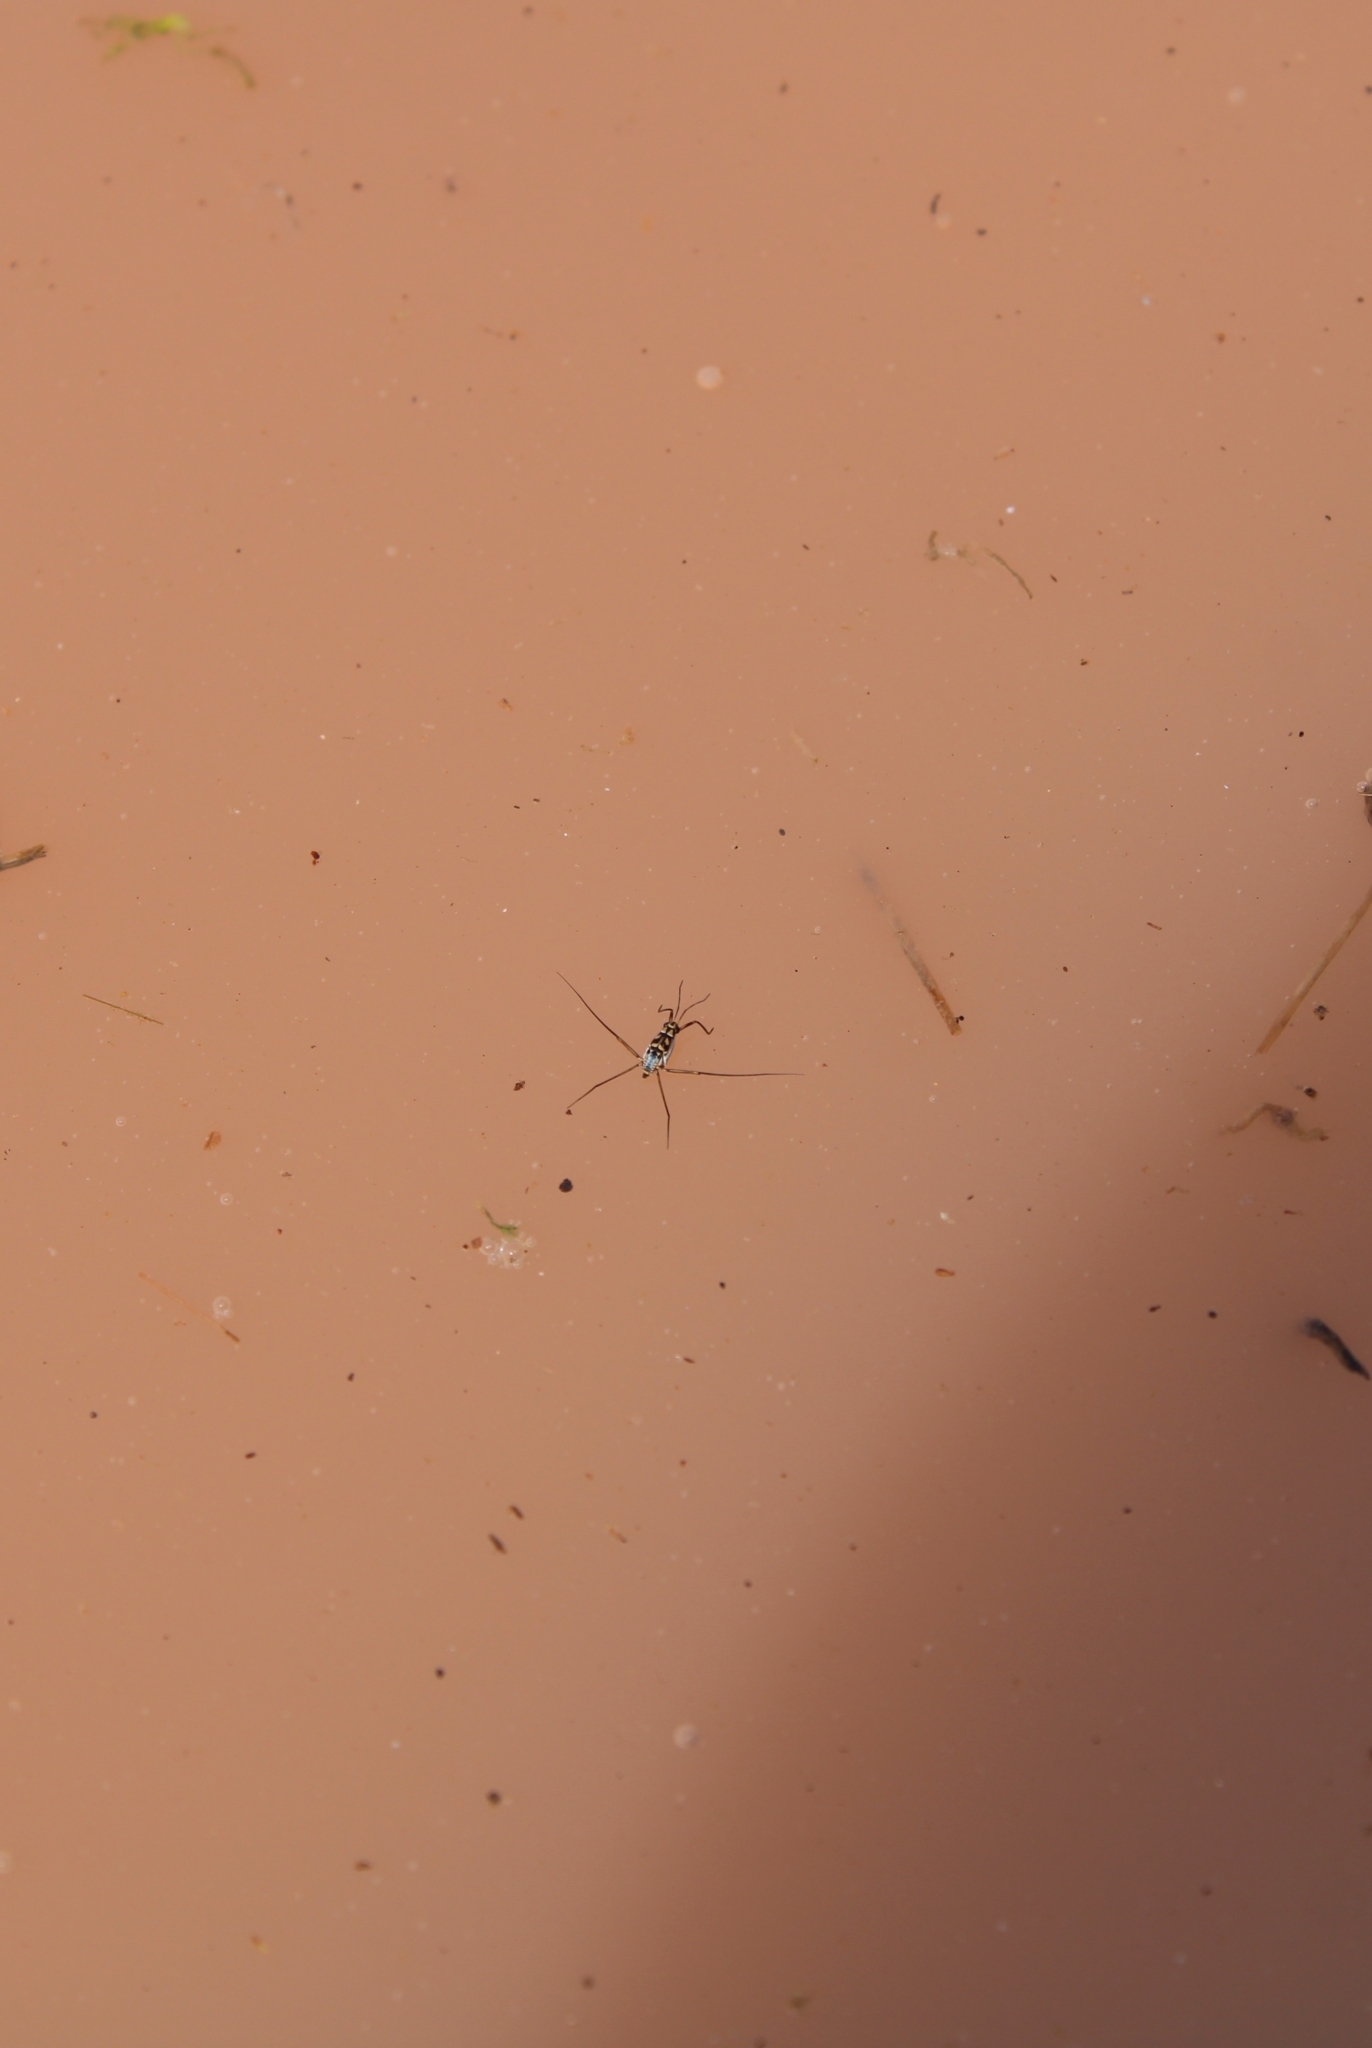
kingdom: Animalia
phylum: Arthropoda
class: Insecta
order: Hemiptera
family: Gerridae
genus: Trepobates
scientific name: Trepobates subnitidus
